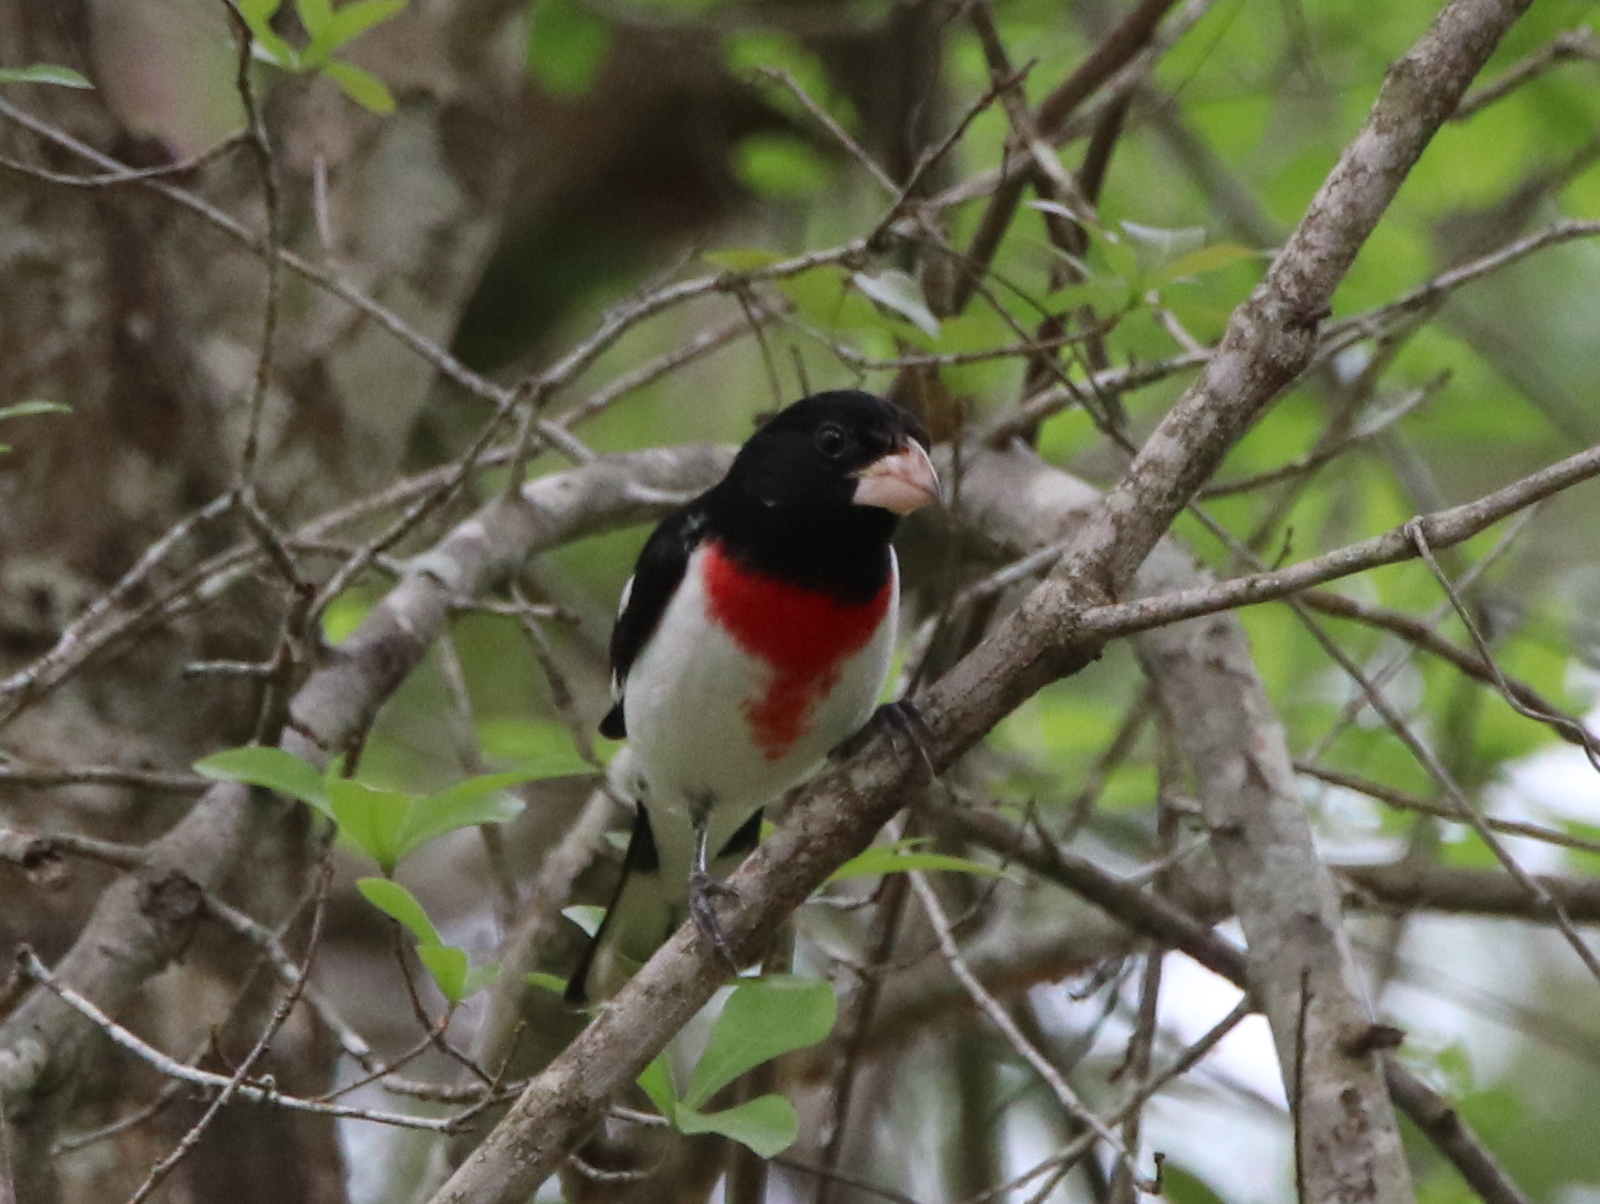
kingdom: Animalia
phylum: Chordata
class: Aves
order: Passeriformes
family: Cardinalidae
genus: Pheucticus
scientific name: Pheucticus ludovicianus
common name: Rose-breasted grosbeak
